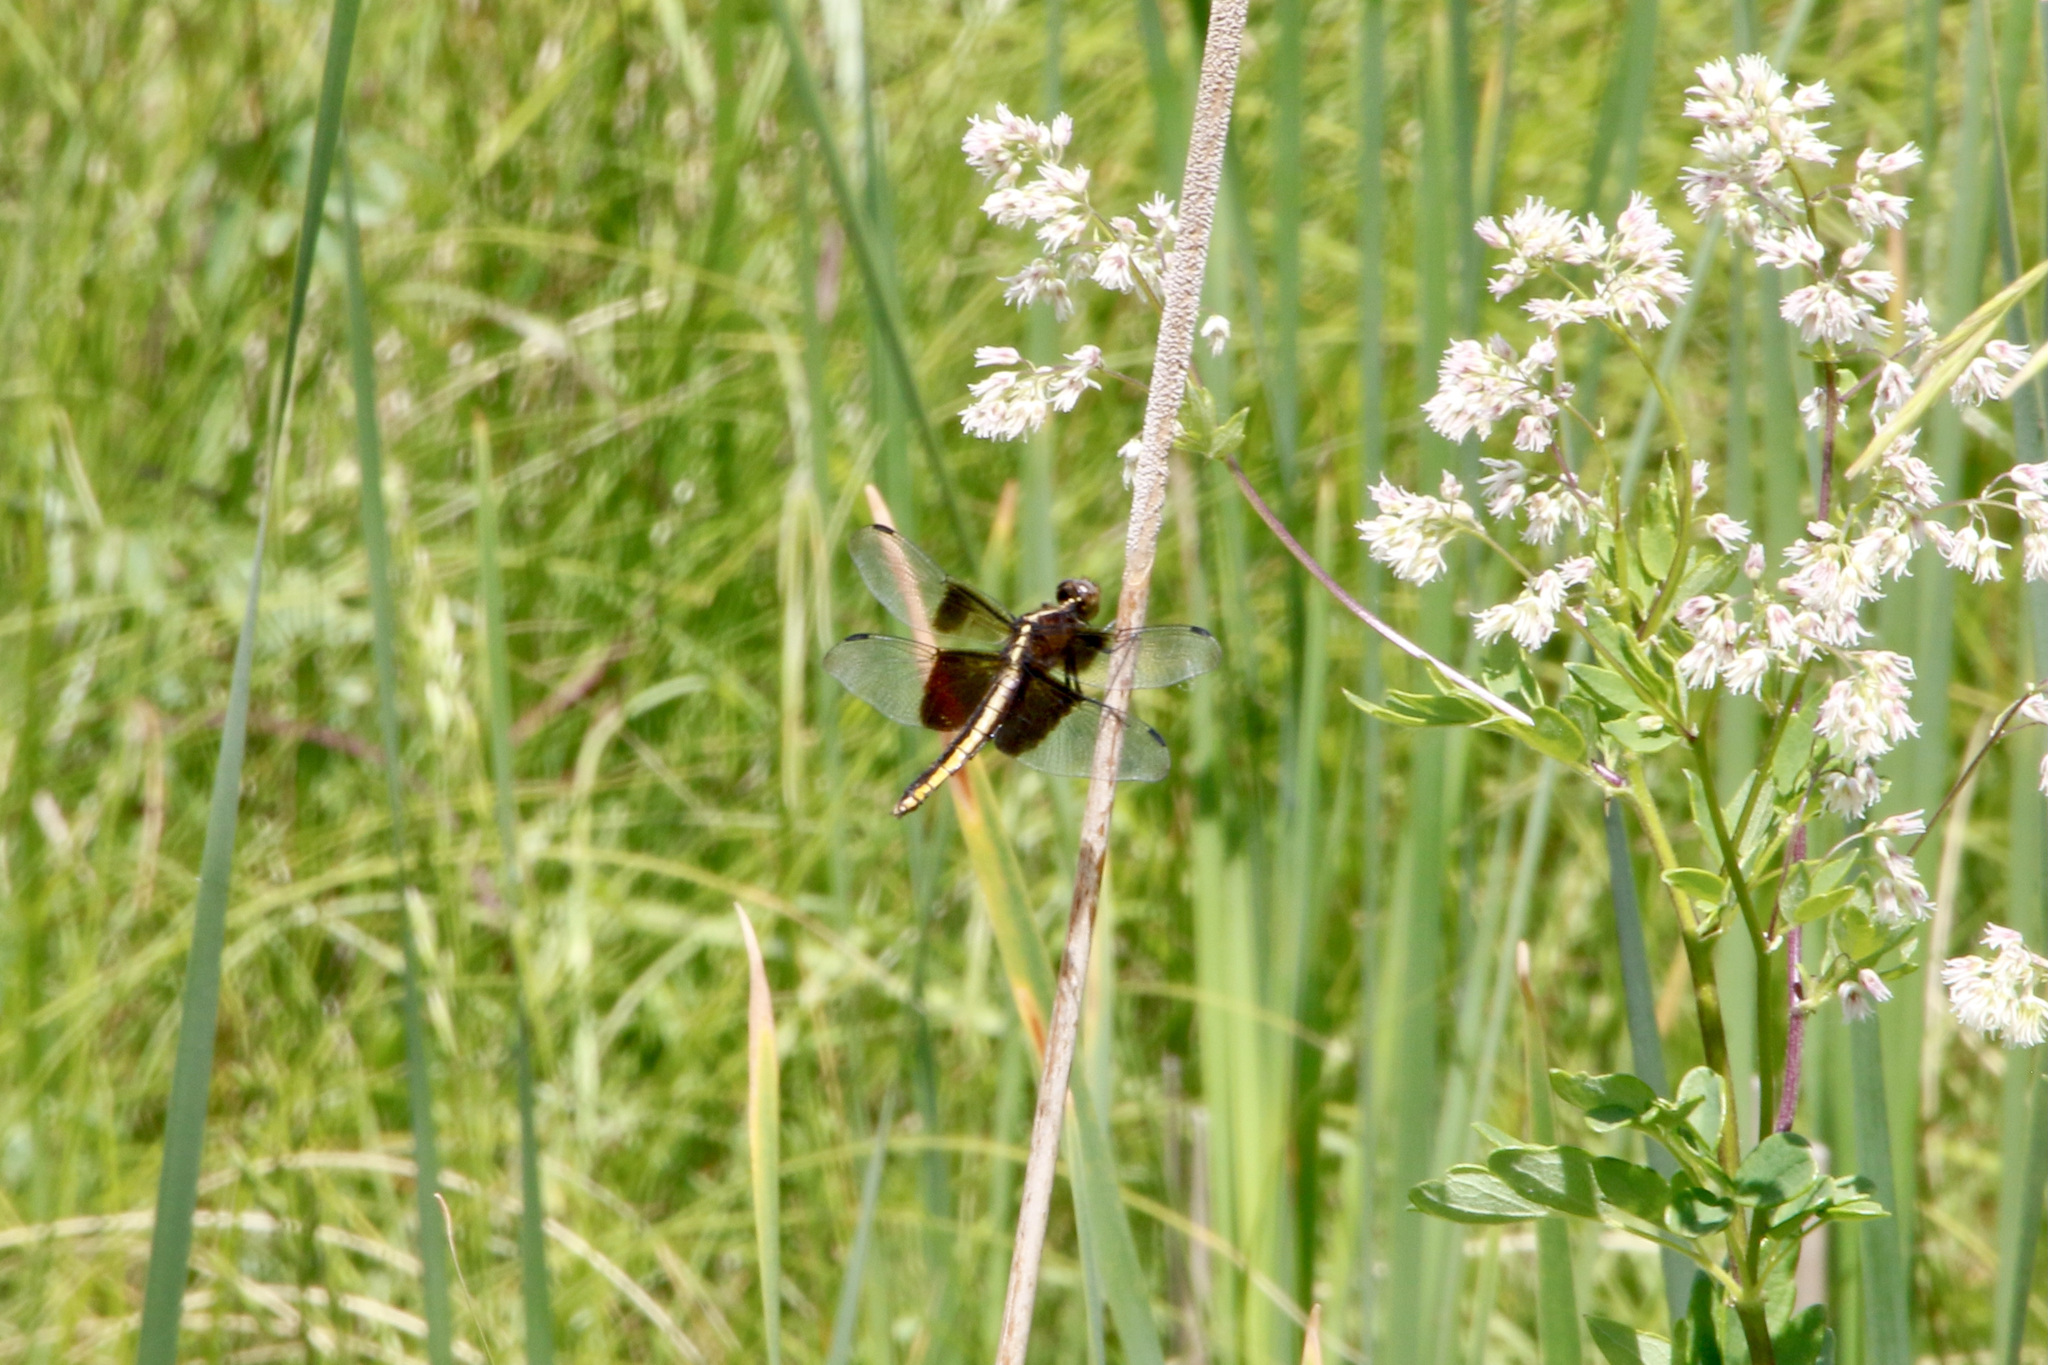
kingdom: Animalia
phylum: Arthropoda
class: Insecta
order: Odonata
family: Libellulidae
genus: Libellula
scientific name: Libellula luctuosa
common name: Widow skimmer
